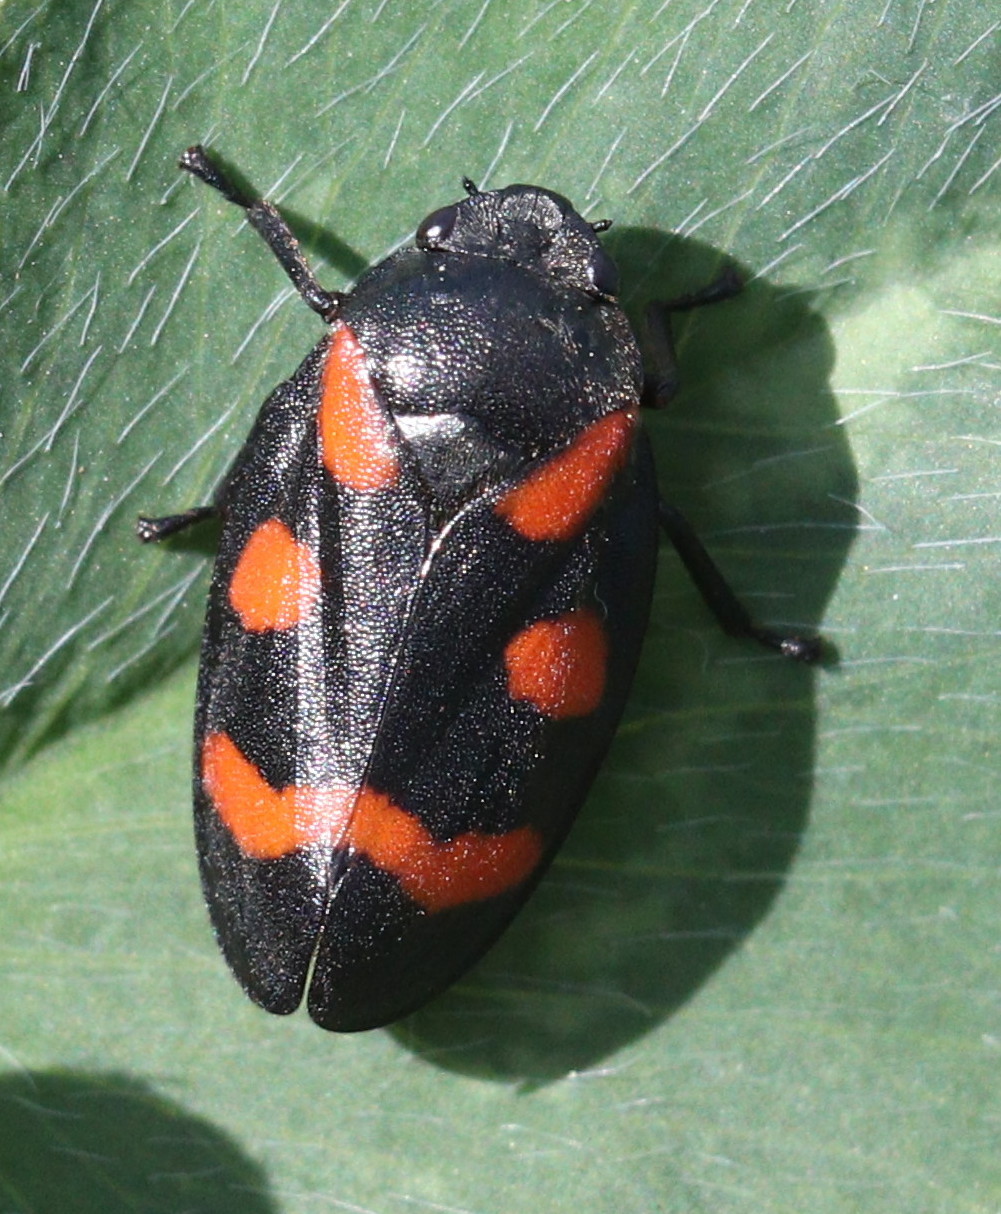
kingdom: Animalia
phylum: Arthropoda
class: Insecta
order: Hemiptera
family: Cercopidae
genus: Cercopis
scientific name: Cercopis
